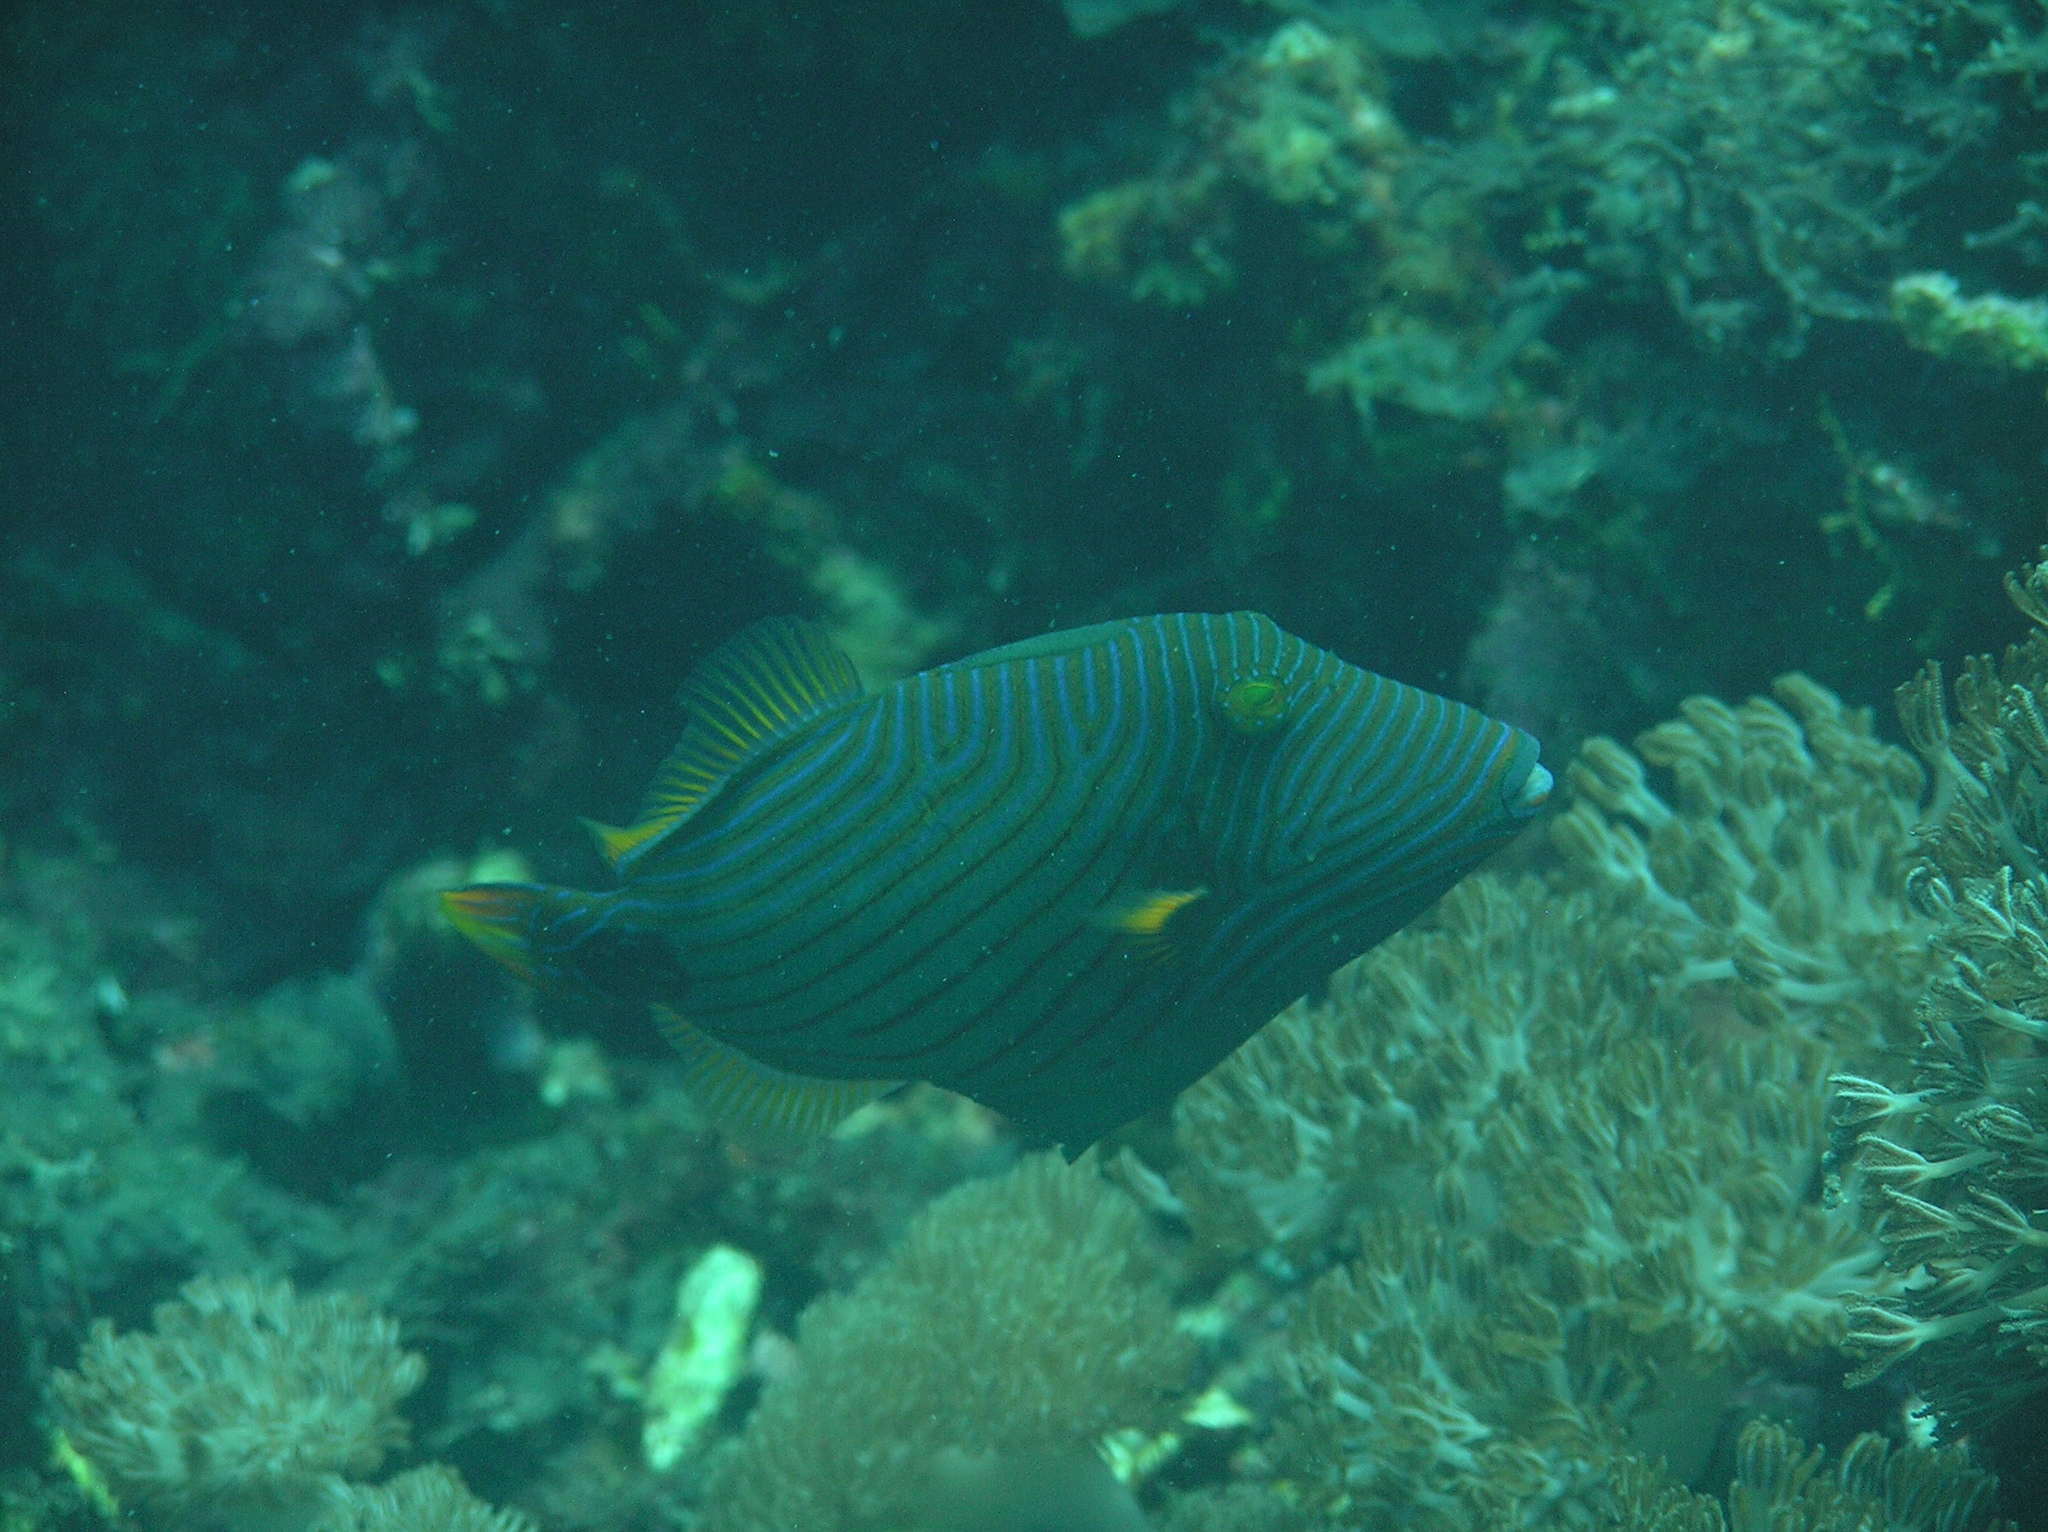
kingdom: Animalia
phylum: Chordata
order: Tetraodontiformes
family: Balistidae
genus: Balistapus
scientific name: Balistapus undulatus
